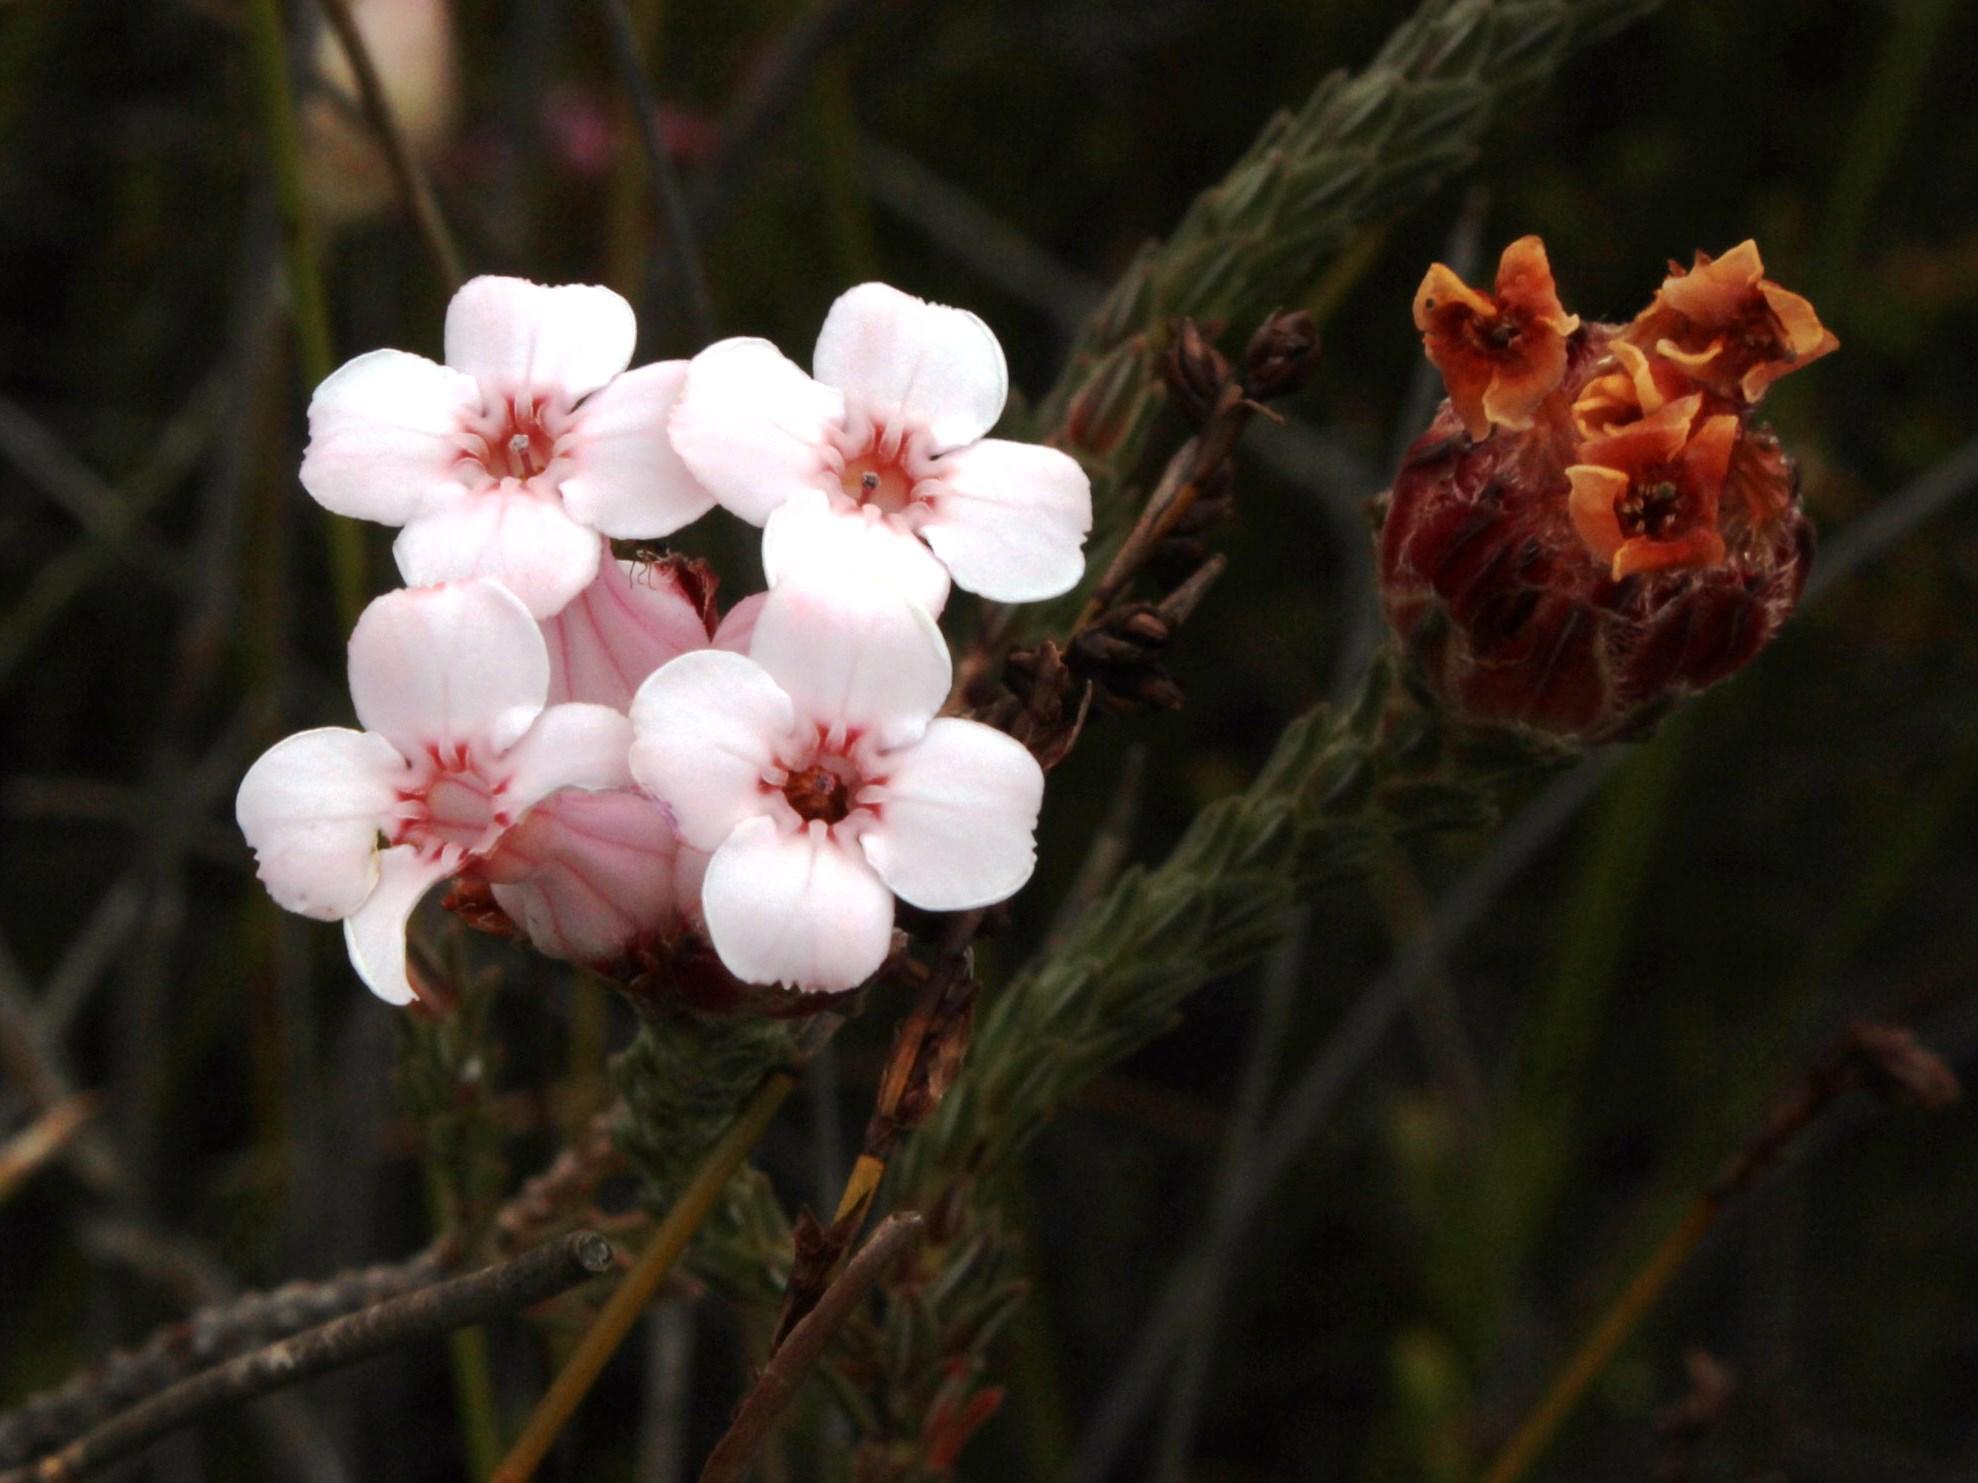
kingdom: Plantae
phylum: Tracheophyta
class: Magnoliopsida
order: Ericales
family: Ericaceae
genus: Erica
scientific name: Erica ampullacea
